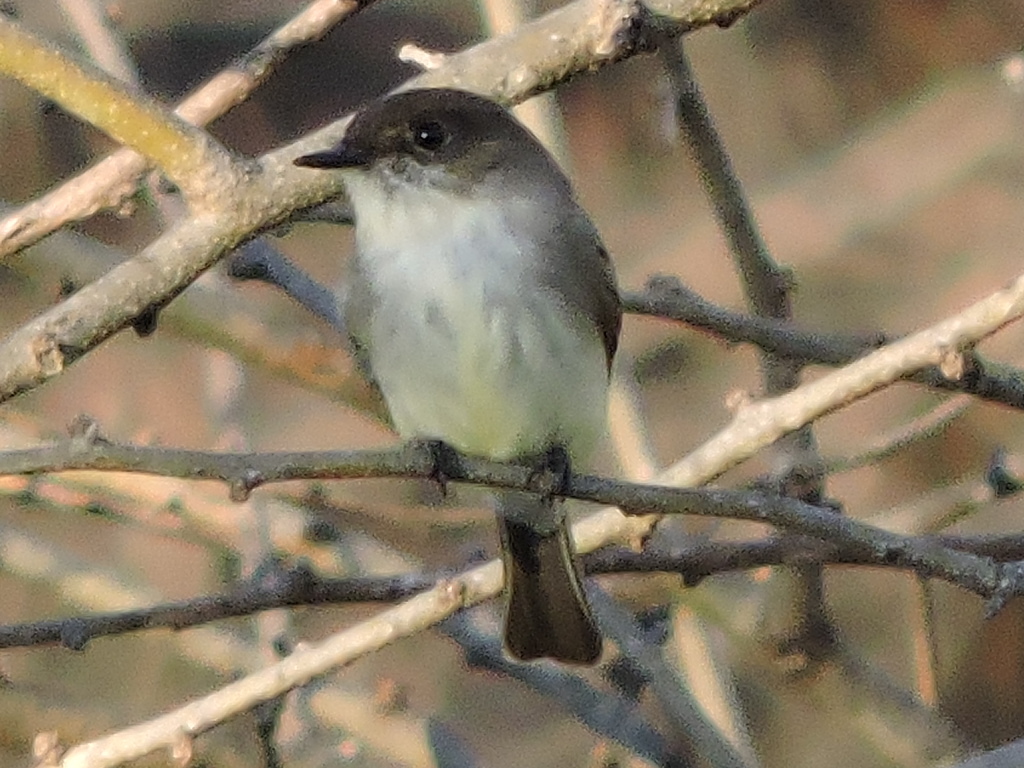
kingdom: Animalia
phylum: Chordata
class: Aves
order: Passeriformes
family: Tyrannidae
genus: Sayornis
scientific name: Sayornis phoebe
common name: Eastern phoebe
